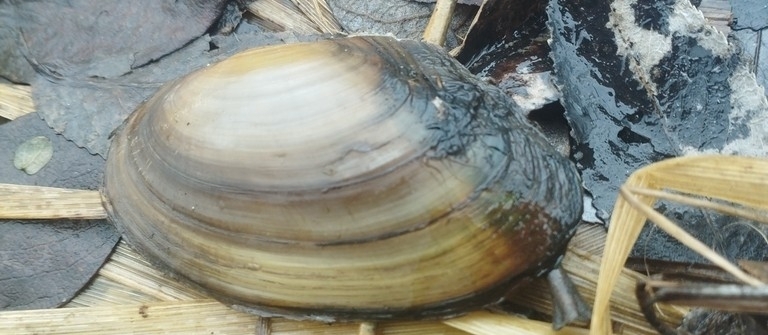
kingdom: Animalia
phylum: Mollusca
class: Bivalvia
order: Unionida
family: Unionidae
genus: Anodonta
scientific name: Anodonta anatina
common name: Duck mussel
